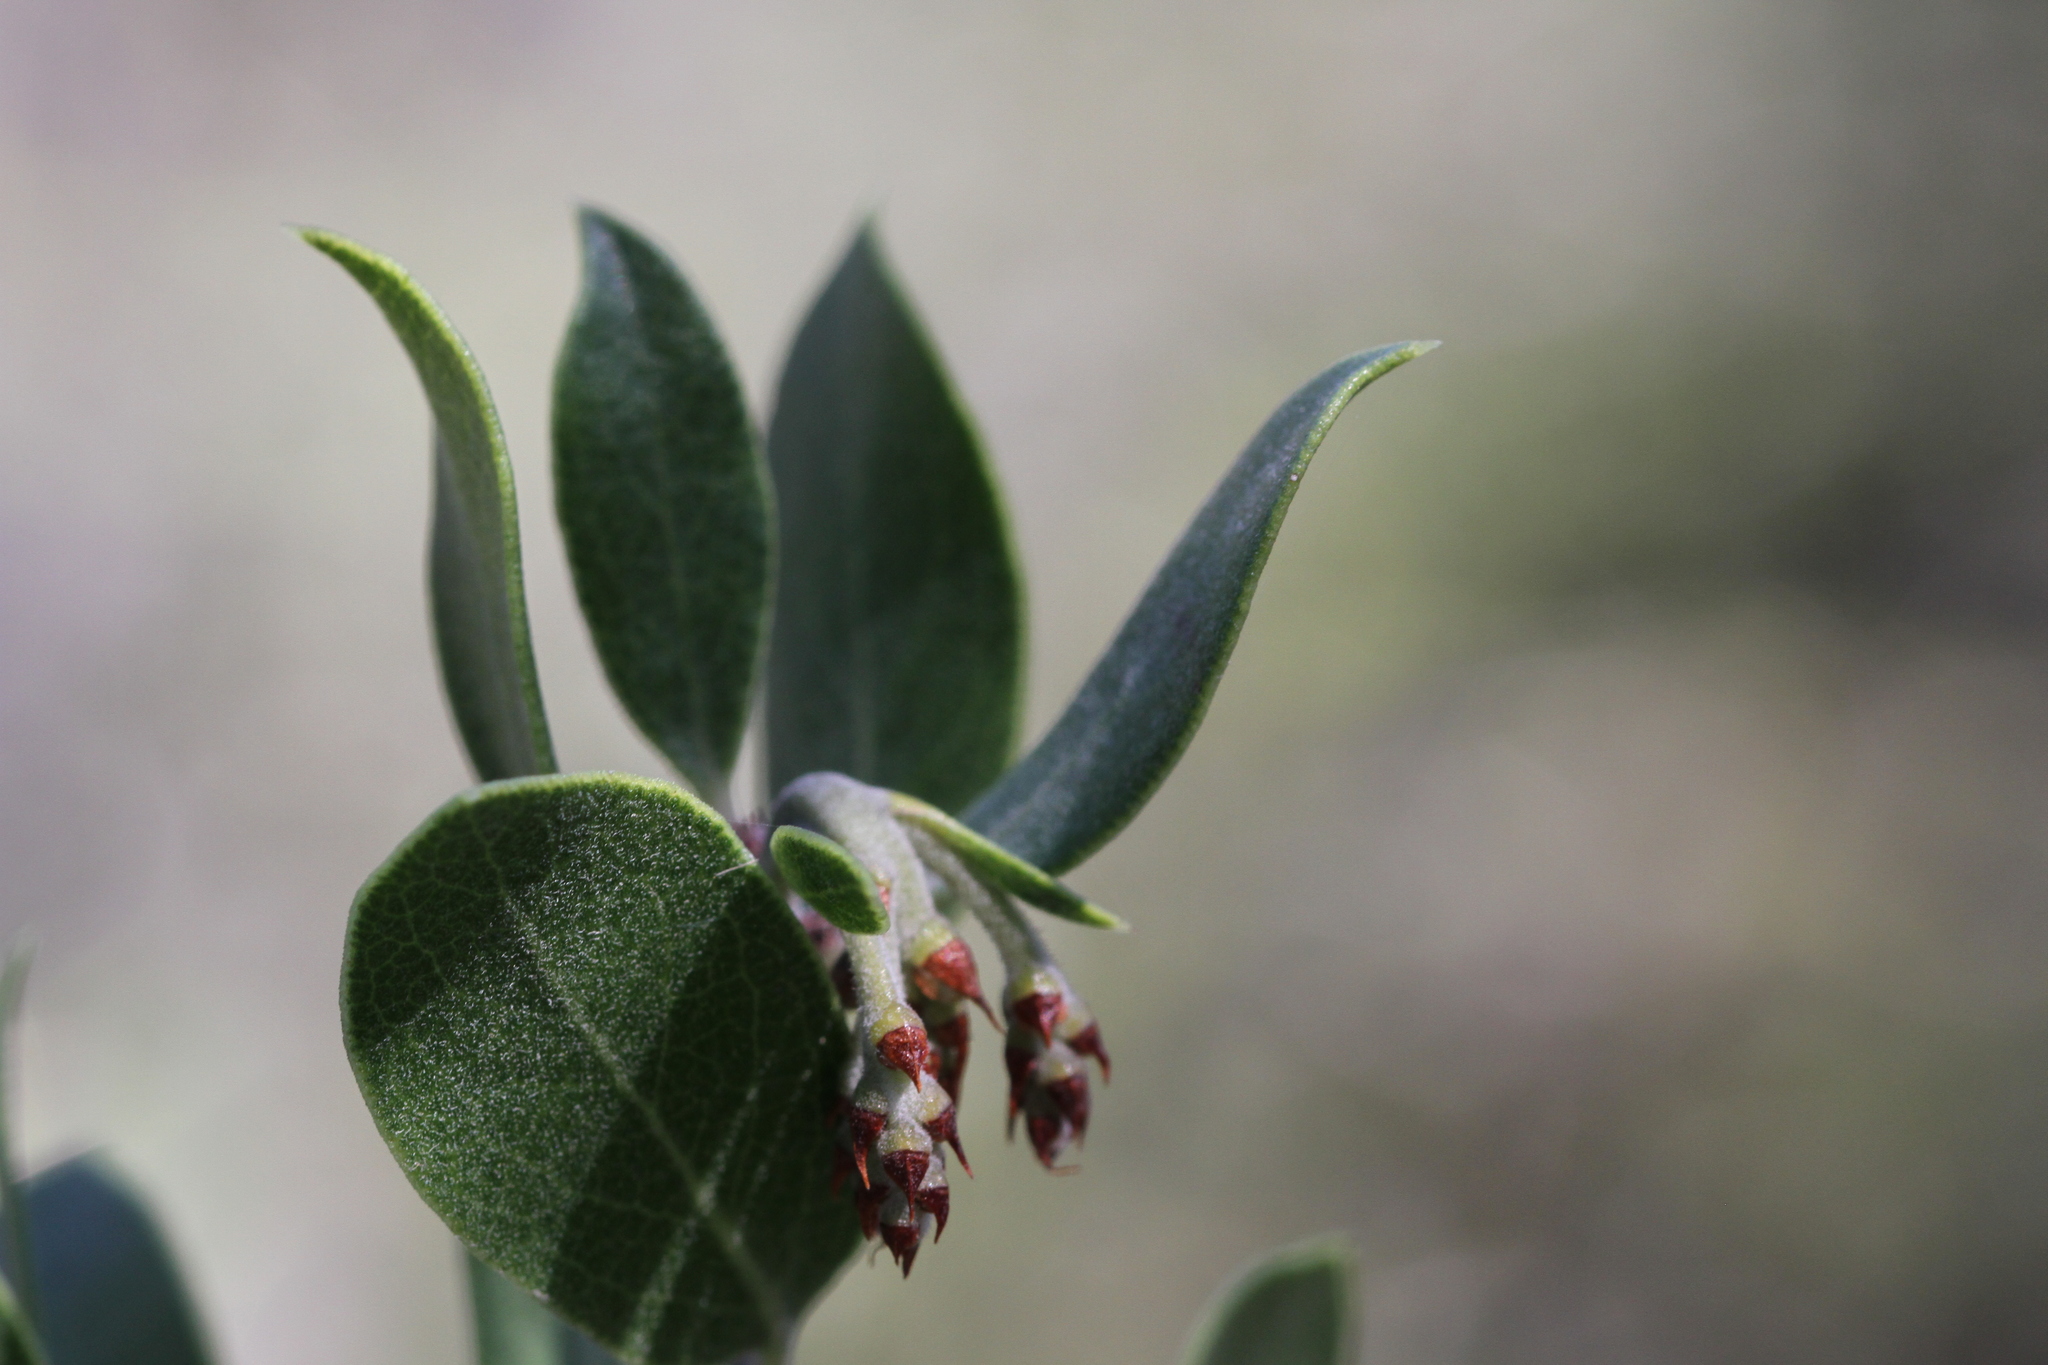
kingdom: Plantae
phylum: Tracheophyta
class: Magnoliopsida
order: Ericales
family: Ericaceae
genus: Arctostaphylos
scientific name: Arctostaphylos montana
